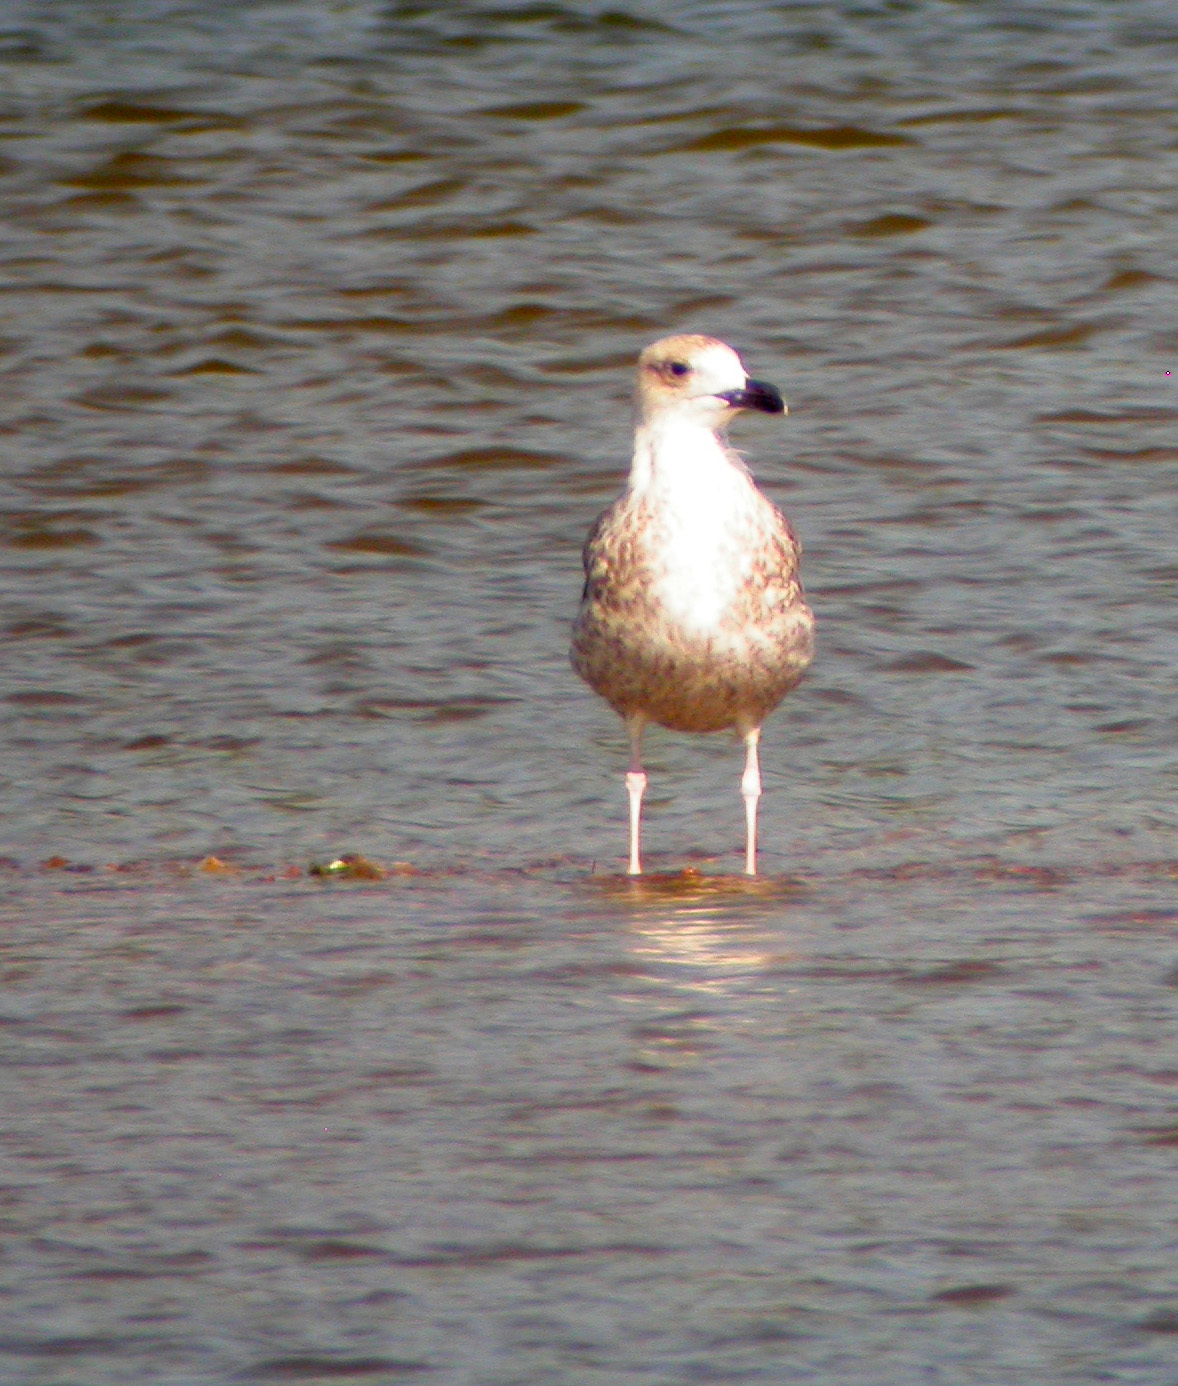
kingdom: Animalia
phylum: Chordata
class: Aves
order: Charadriiformes
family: Laridae
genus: Larus
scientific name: Larus michahellis
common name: Yellow-legged gull
